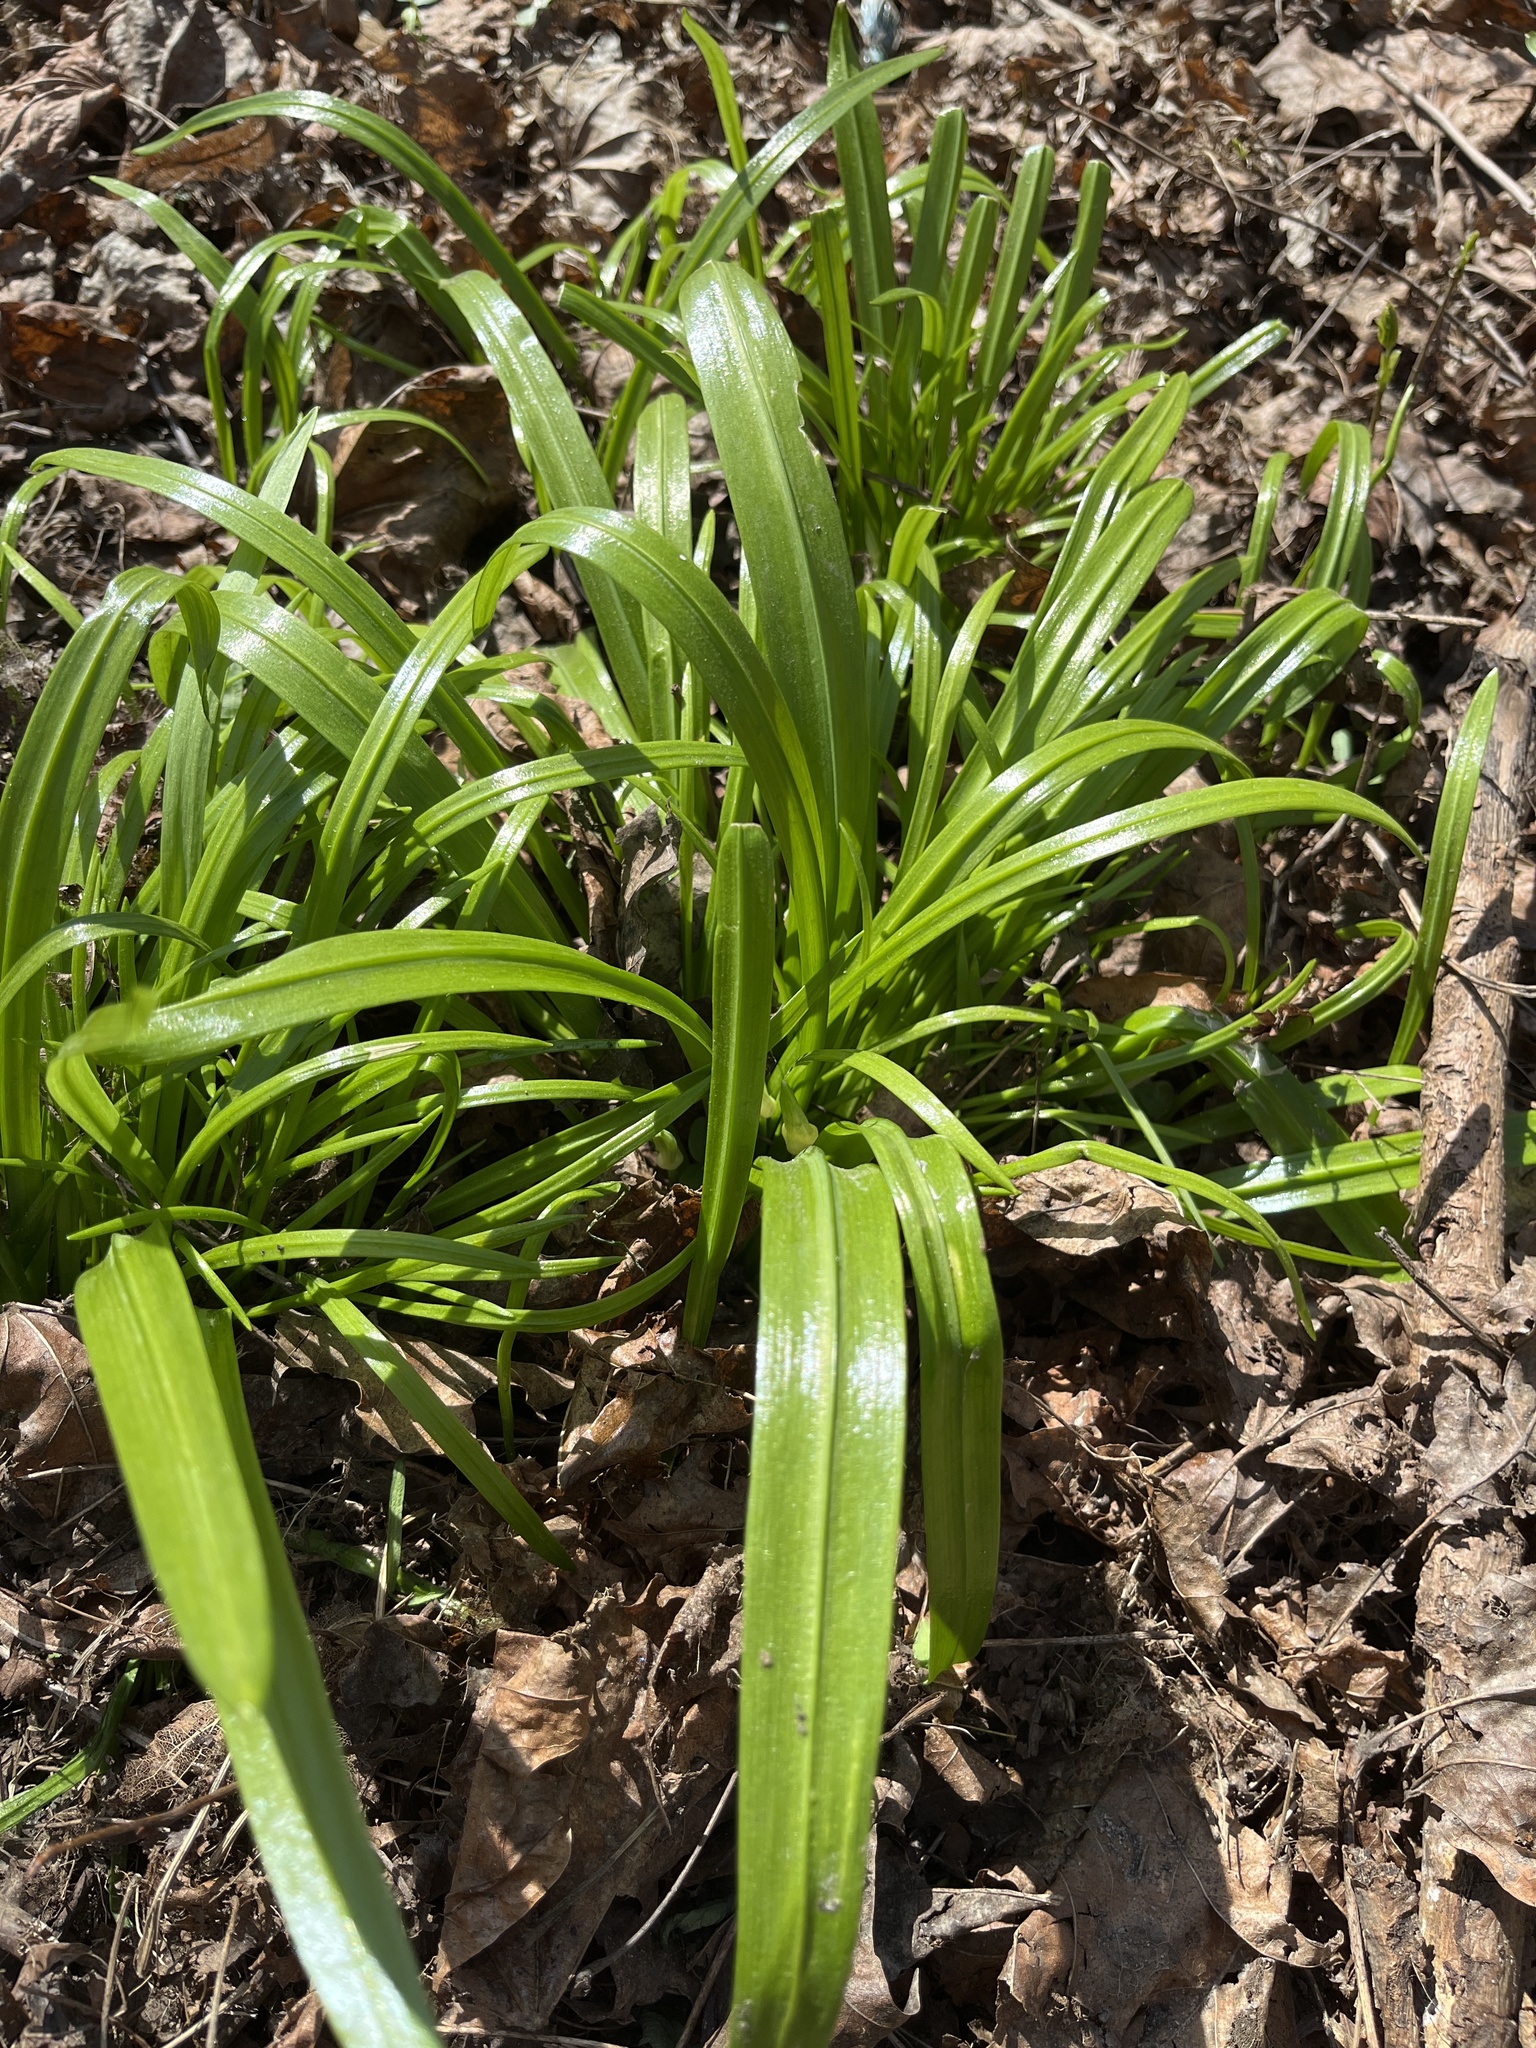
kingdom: Plantae
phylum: Tracheophyta
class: Liliopsida
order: Asparagales
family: Amaryllidaceae
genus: Allium
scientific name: Allium paradoxum
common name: Few-flowered garlic
